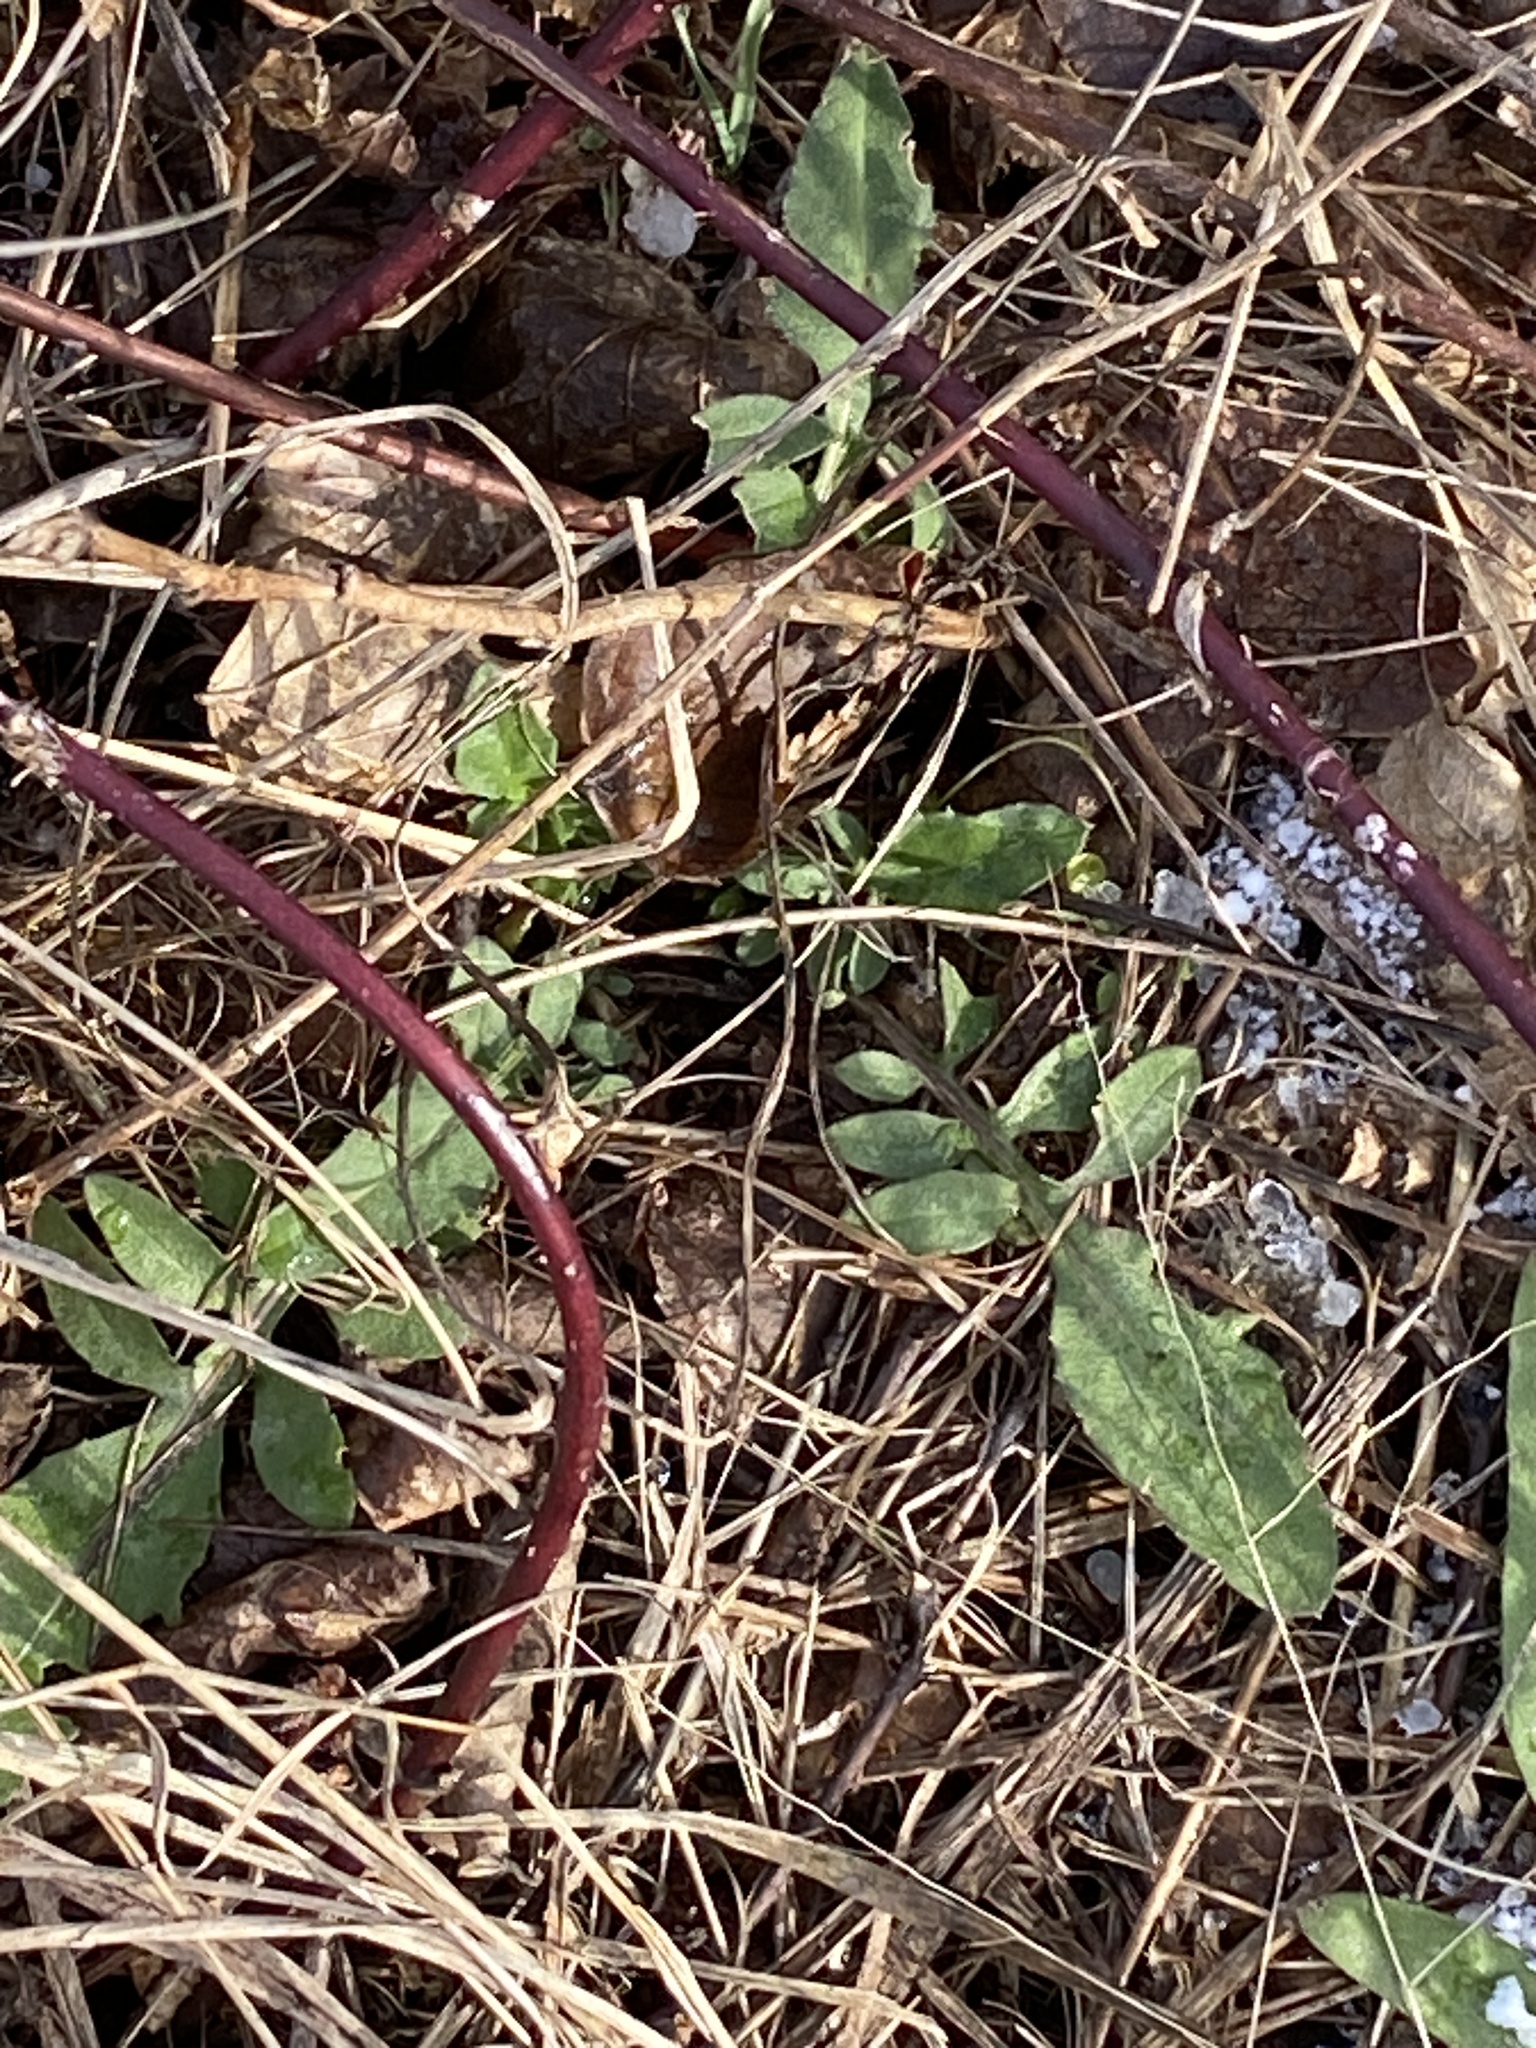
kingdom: Plantae
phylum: Tracheophyta
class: Magnoliopsida
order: Asterales
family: Asteraceae
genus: Centaurea
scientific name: Centaurea stoebe
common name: Spotted knapweed
